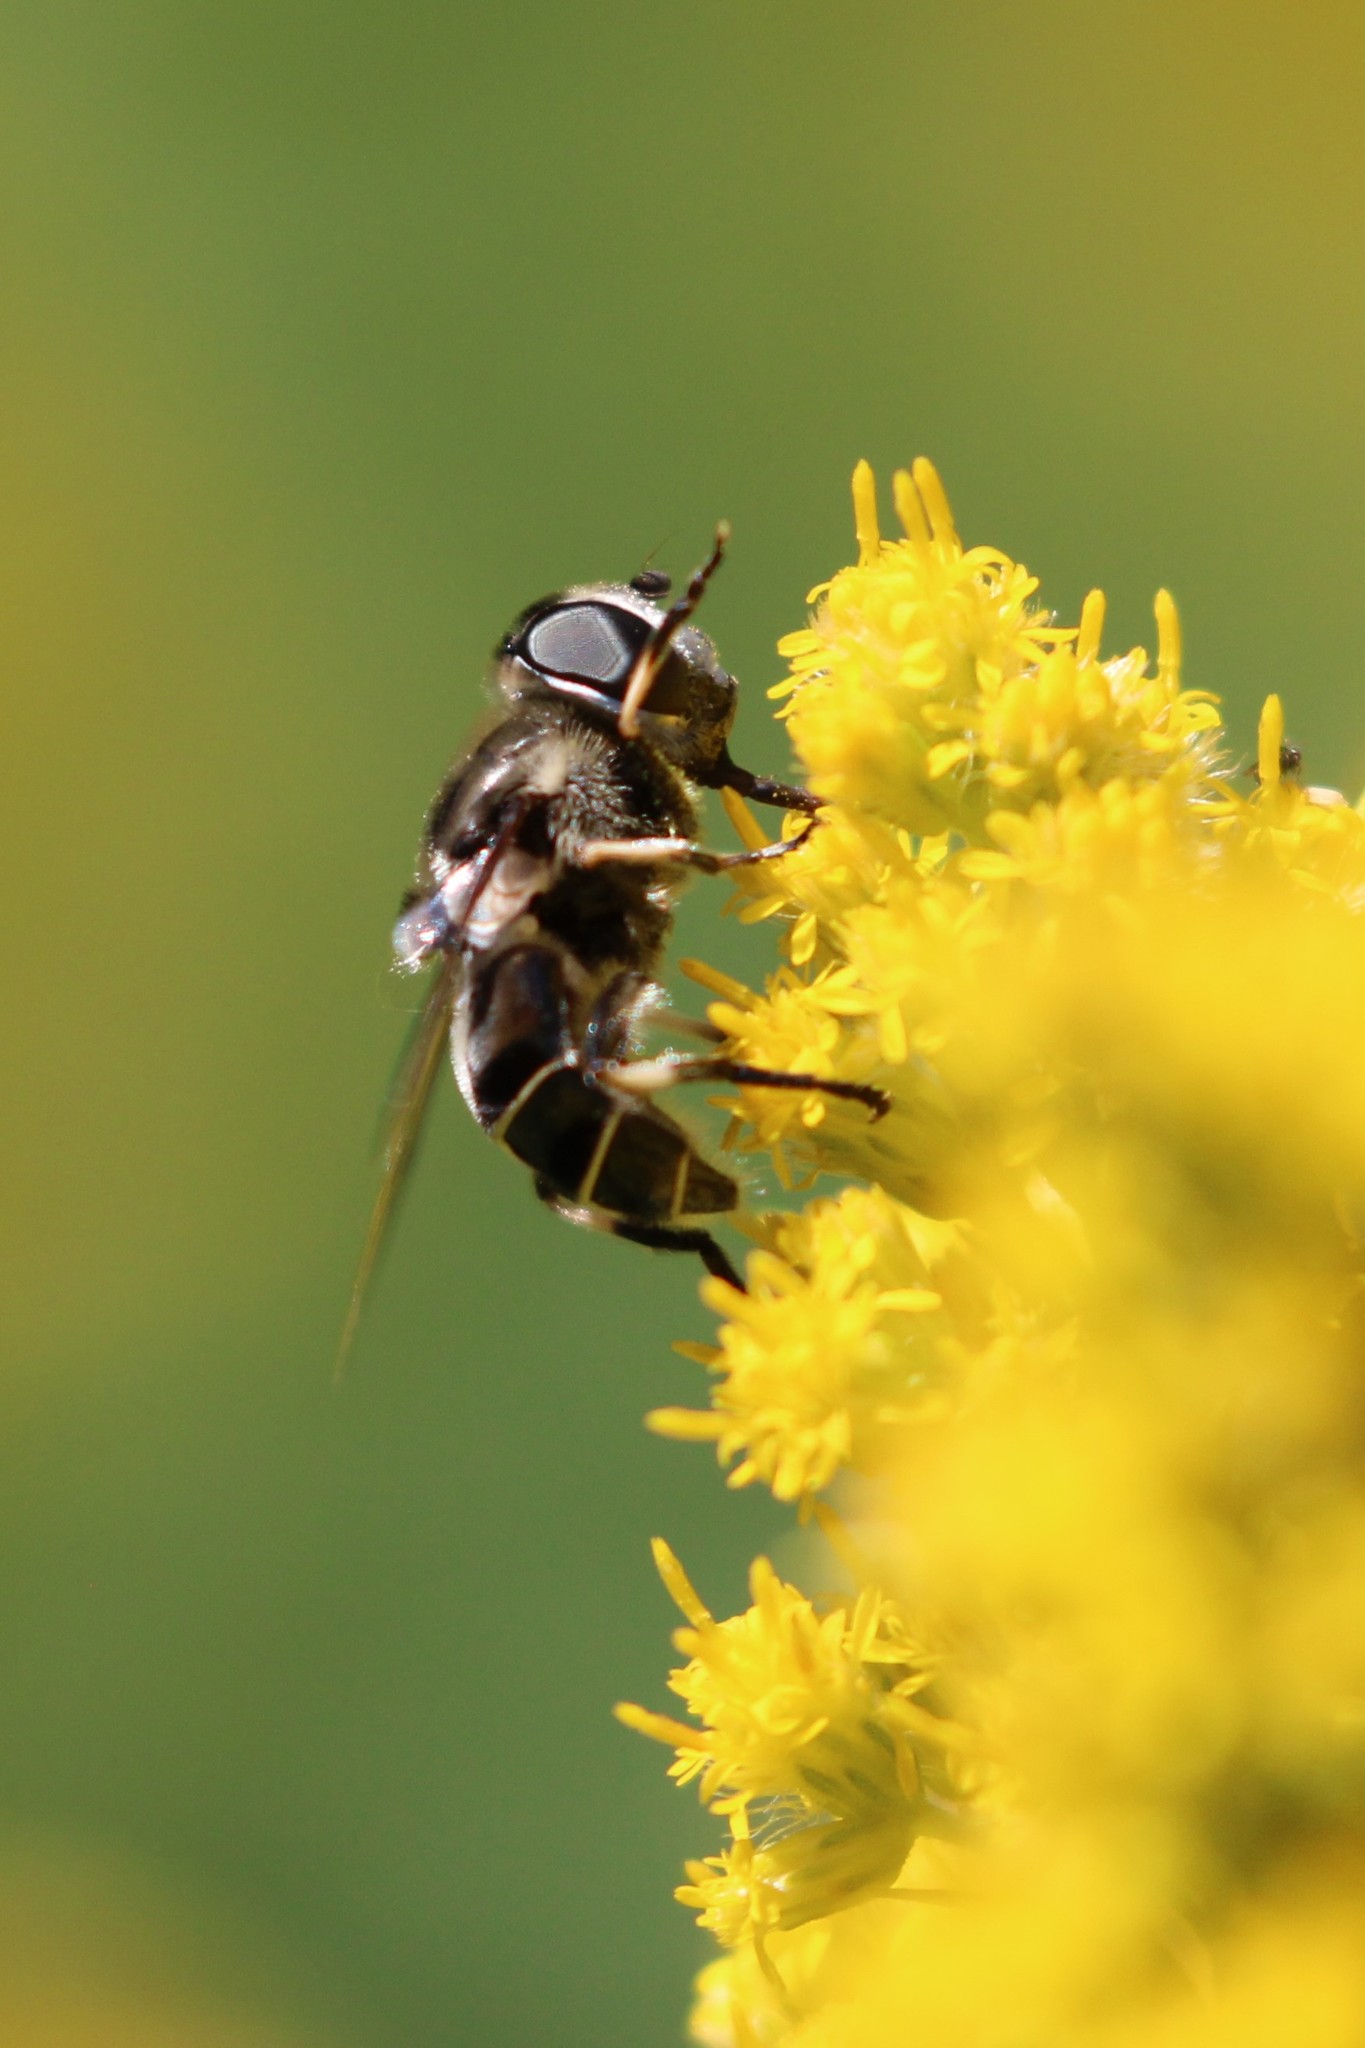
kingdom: Animalia
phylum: Arthropoda
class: Insecta
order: Diptera
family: Syrphidae
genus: Eristalis
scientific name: Eristalis dimidiata
